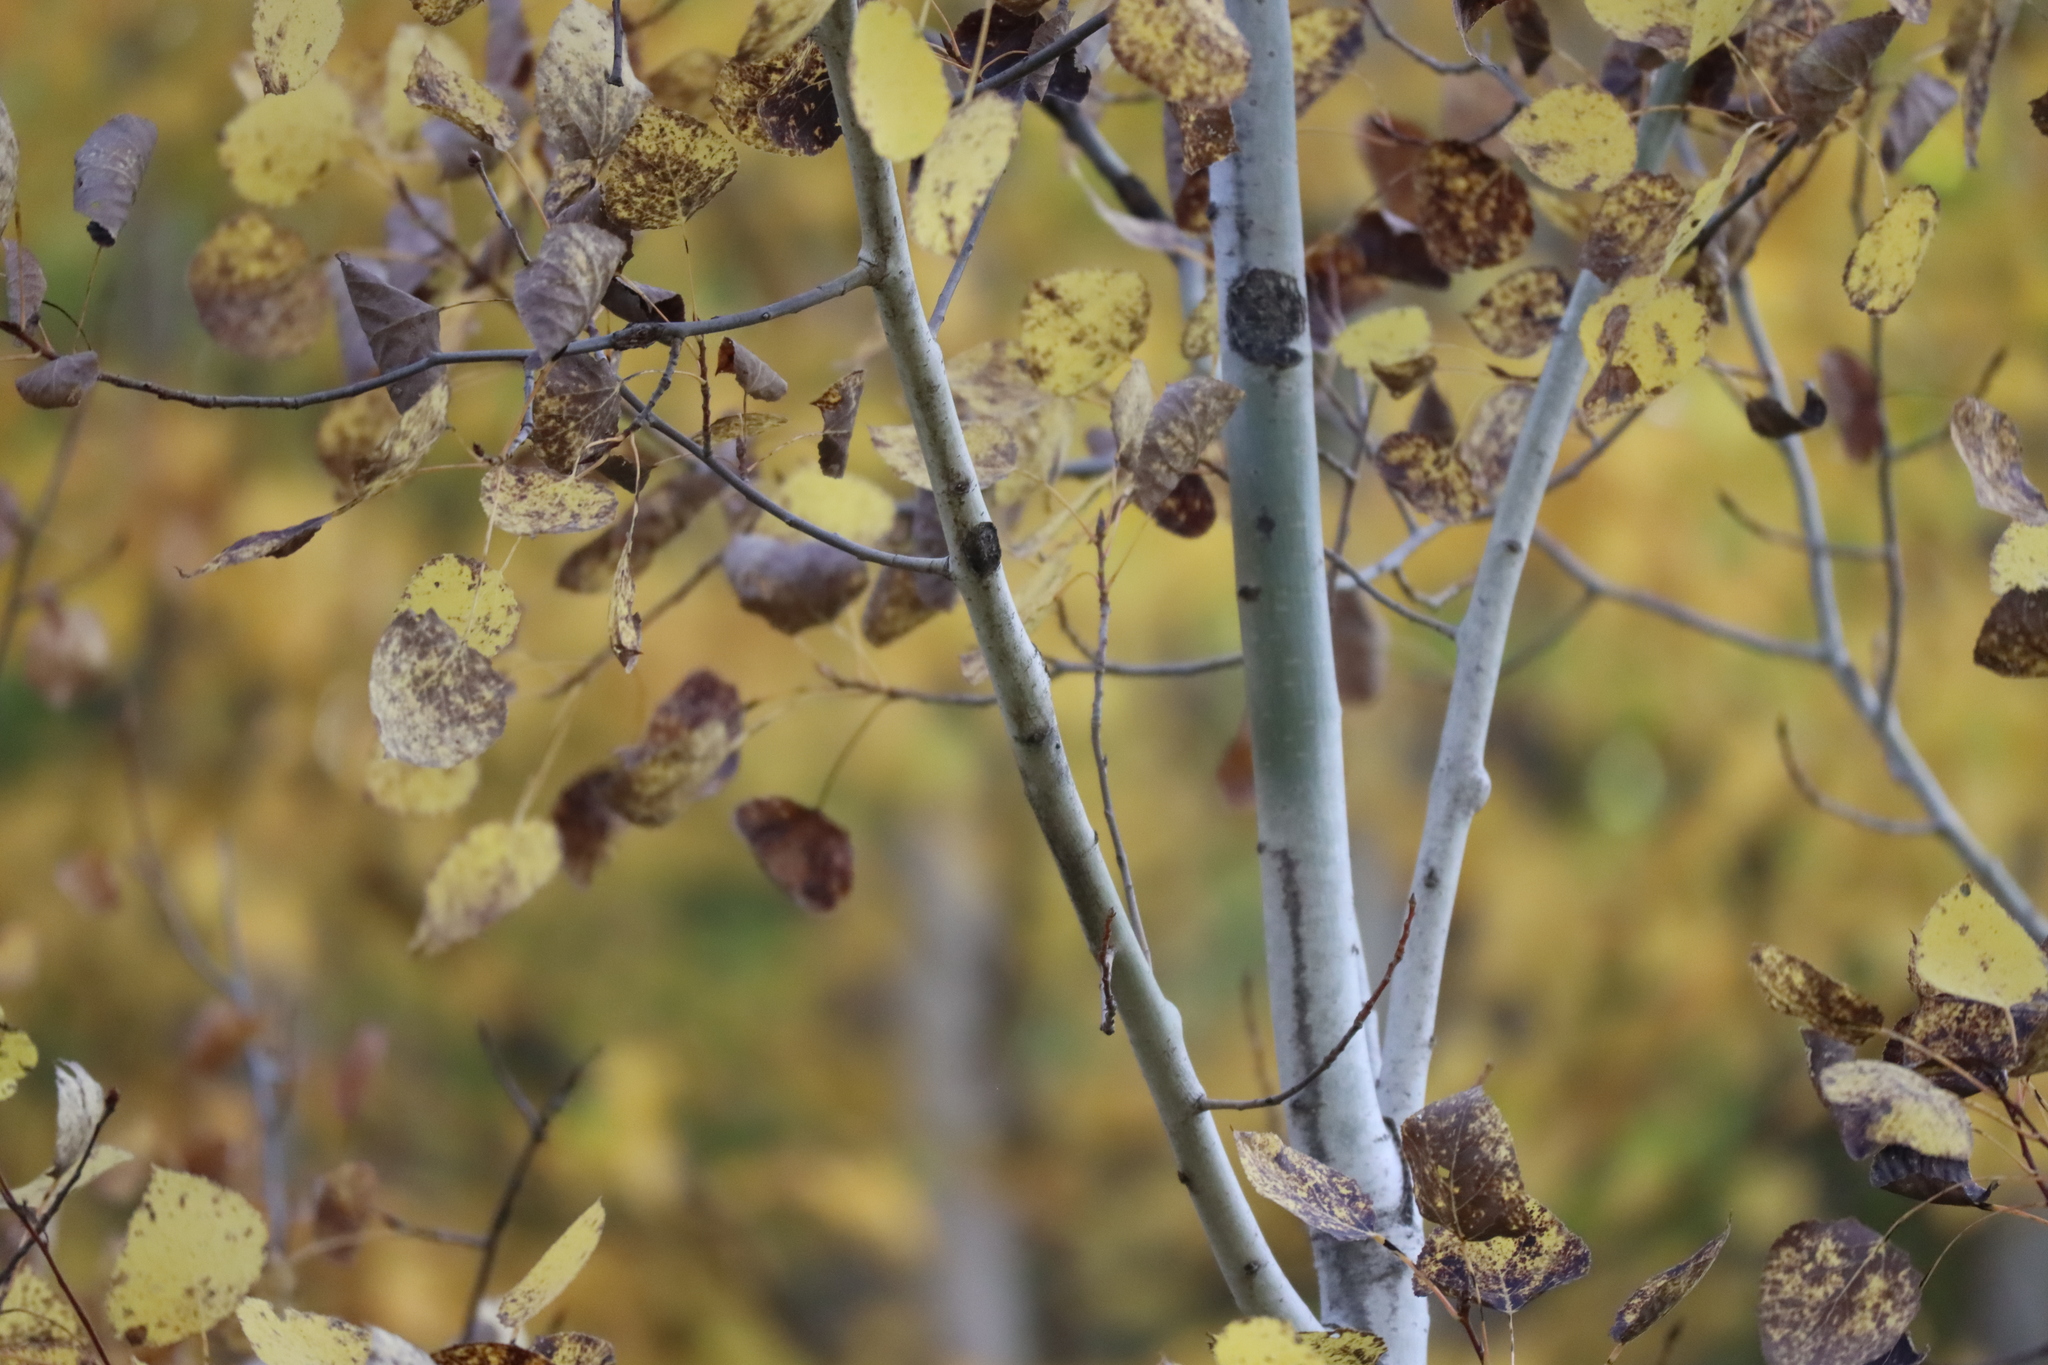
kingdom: Plantae
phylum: Tracheophyta
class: Magnoliopsida
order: Malpighiales
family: Salicaceae
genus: Populus
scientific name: Populus tremuloides
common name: Quaking aspen
